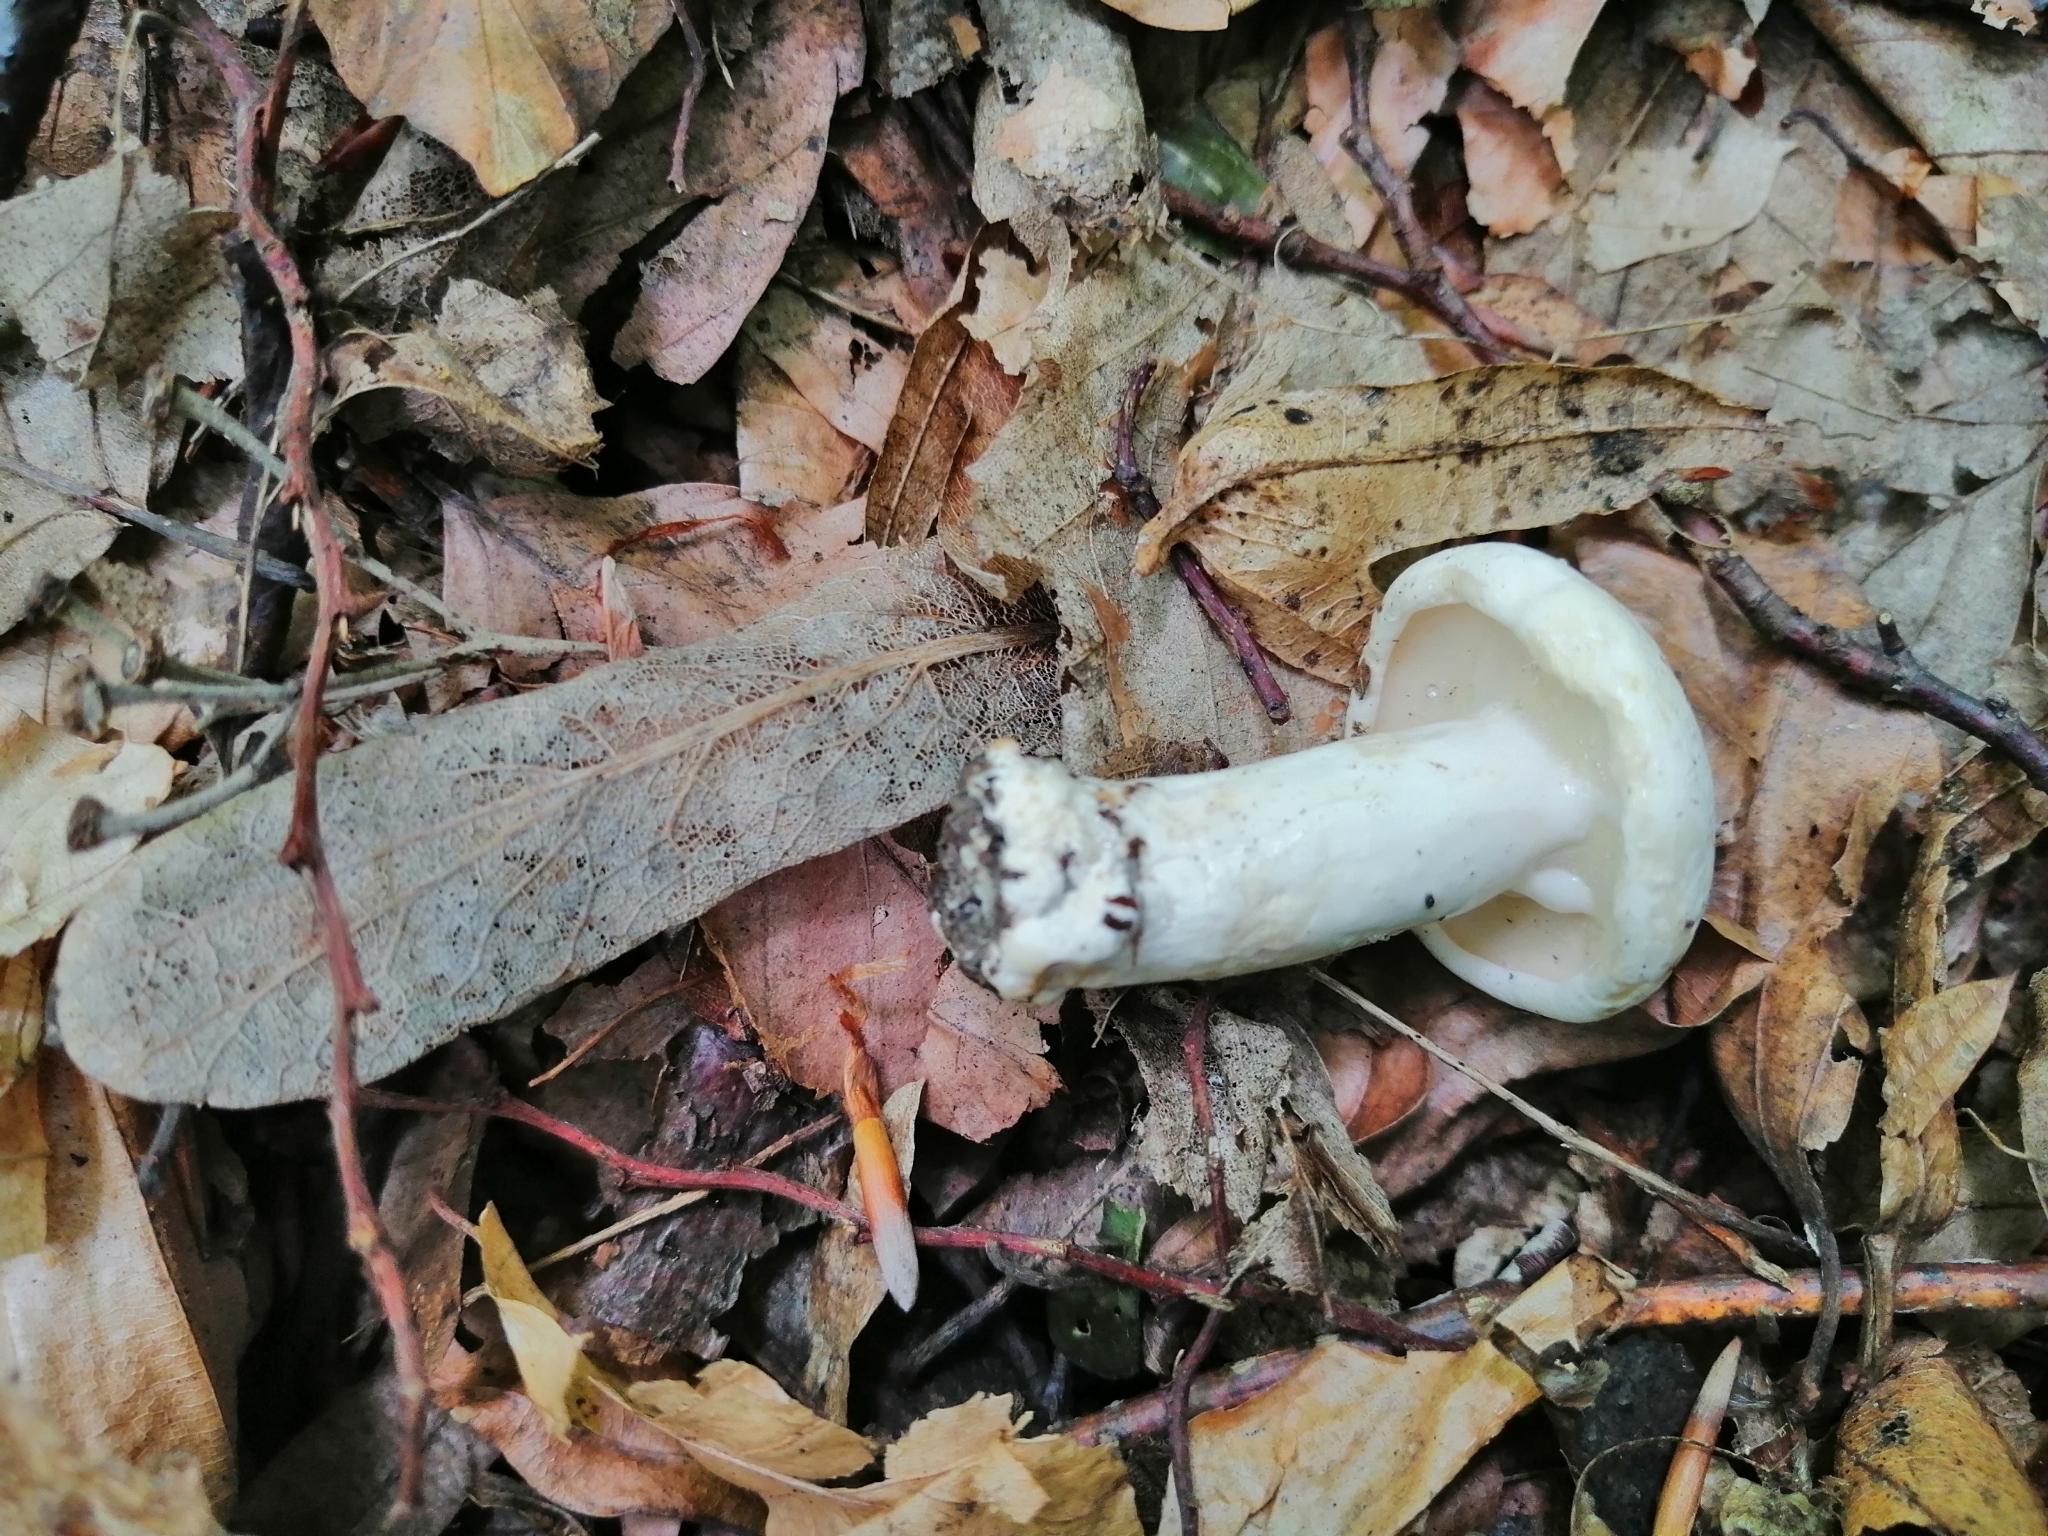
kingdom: Fungi
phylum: Basidiomycota
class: Agaricomycetes
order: Russulales
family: Russulaceae
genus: Lactifluus
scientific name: Lactifluus piperatus
